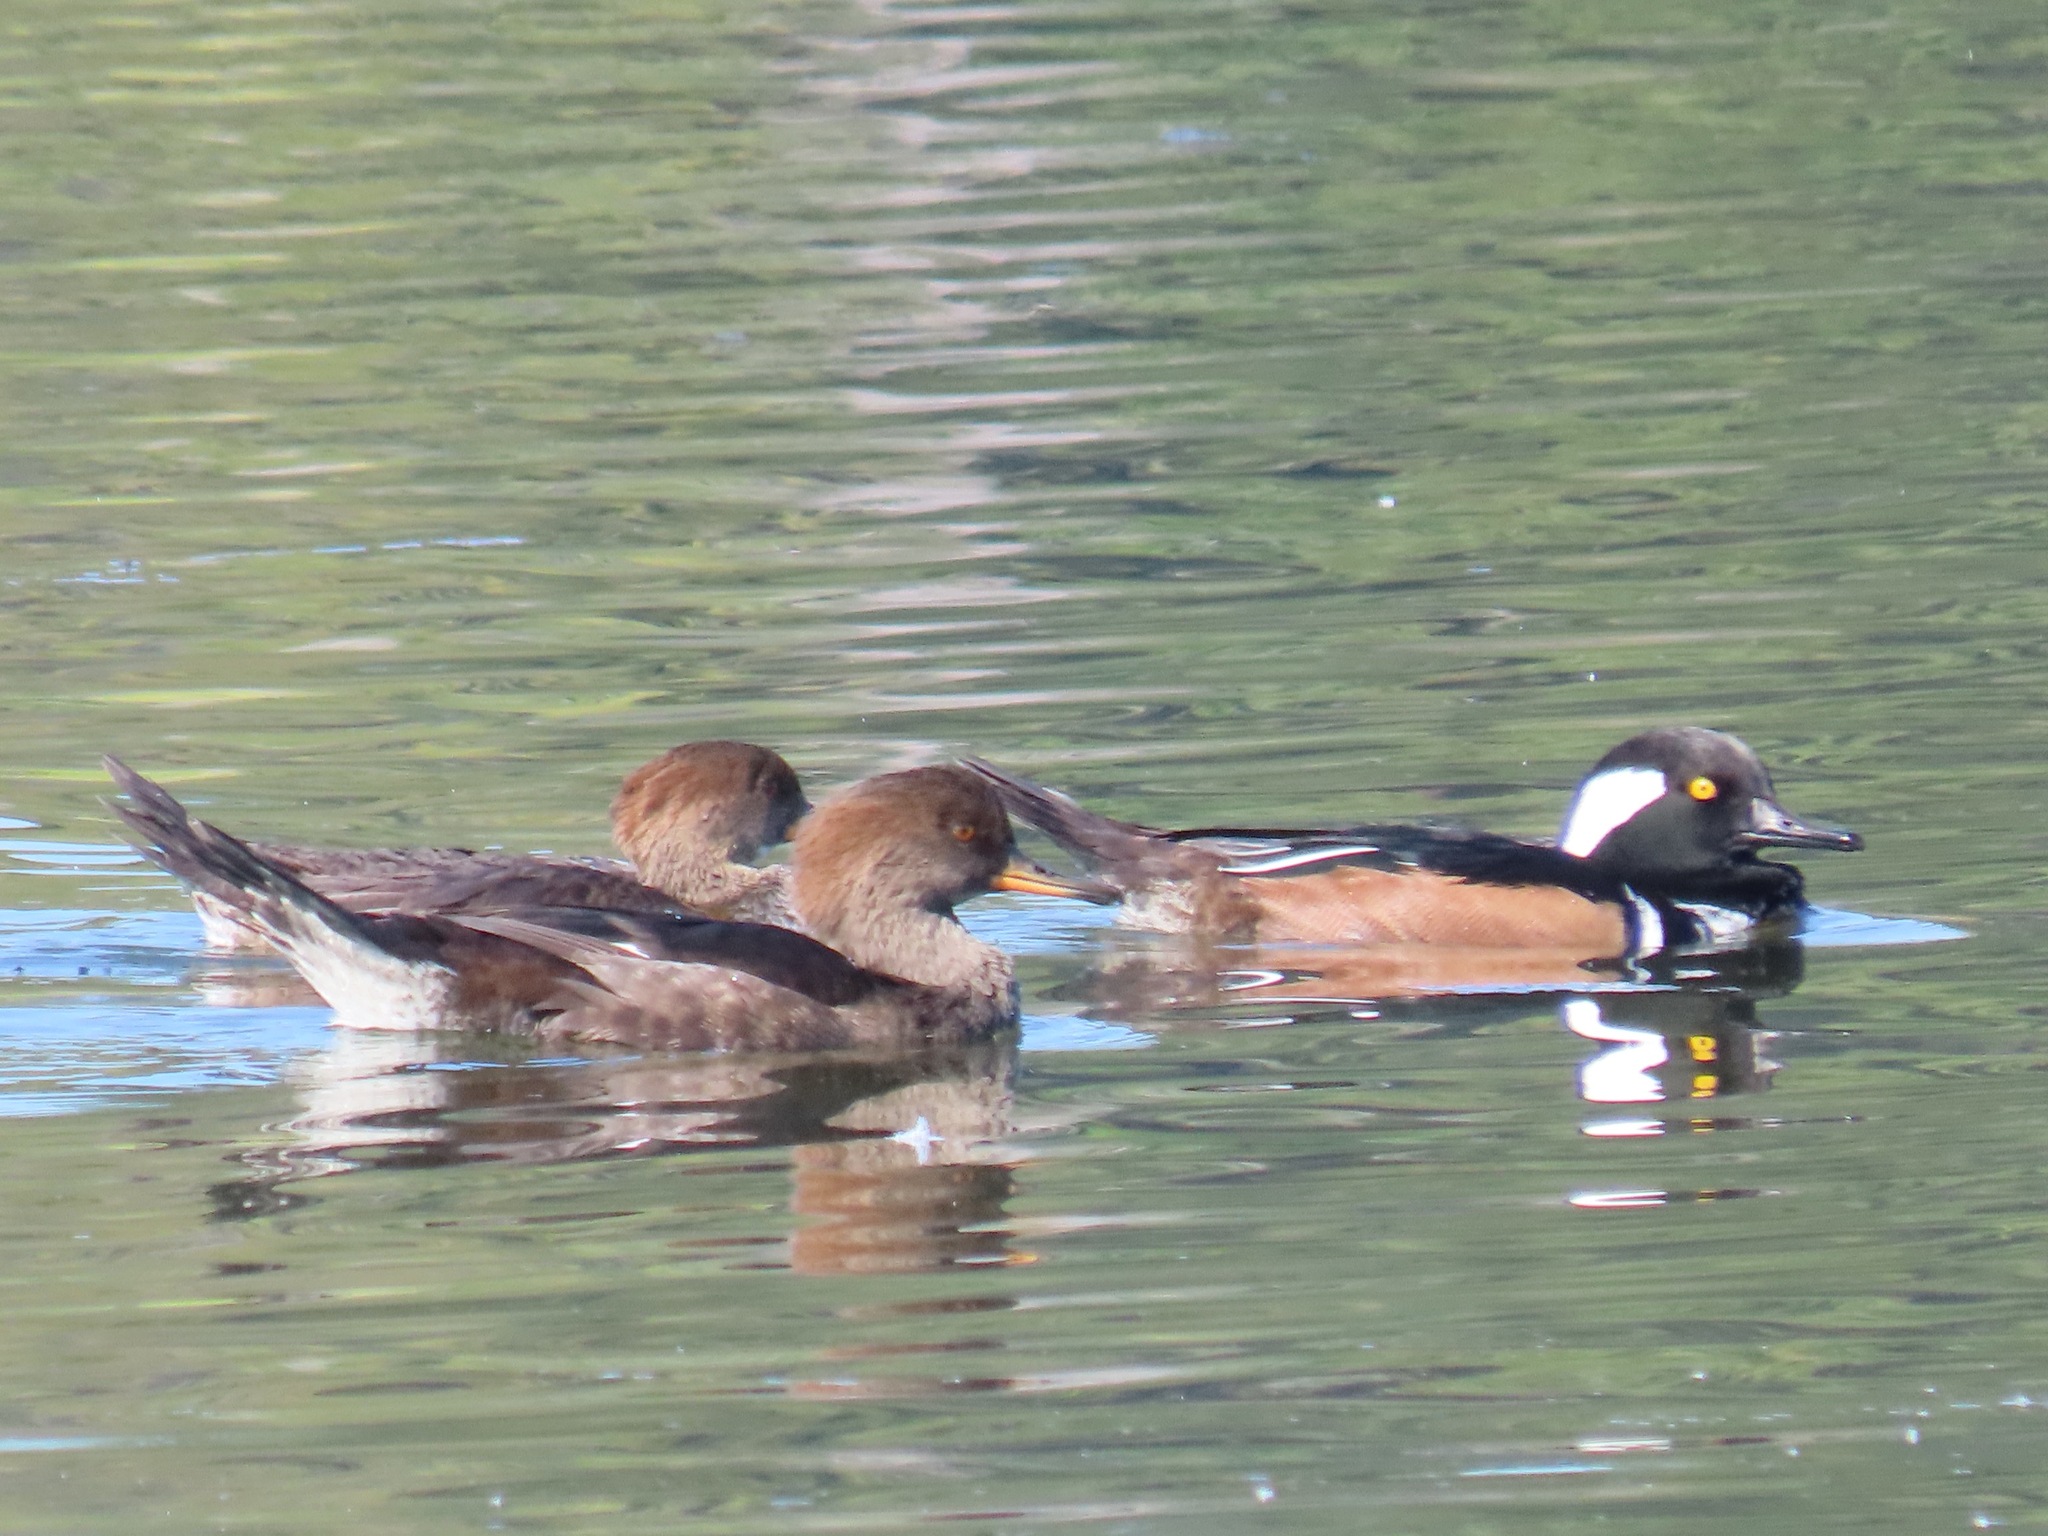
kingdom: Animalia
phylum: Chordata
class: Aves
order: Anseriformes
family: Anatidae
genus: Lophodytes
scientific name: Lophodytes cucullatus
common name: Hooded merganser
